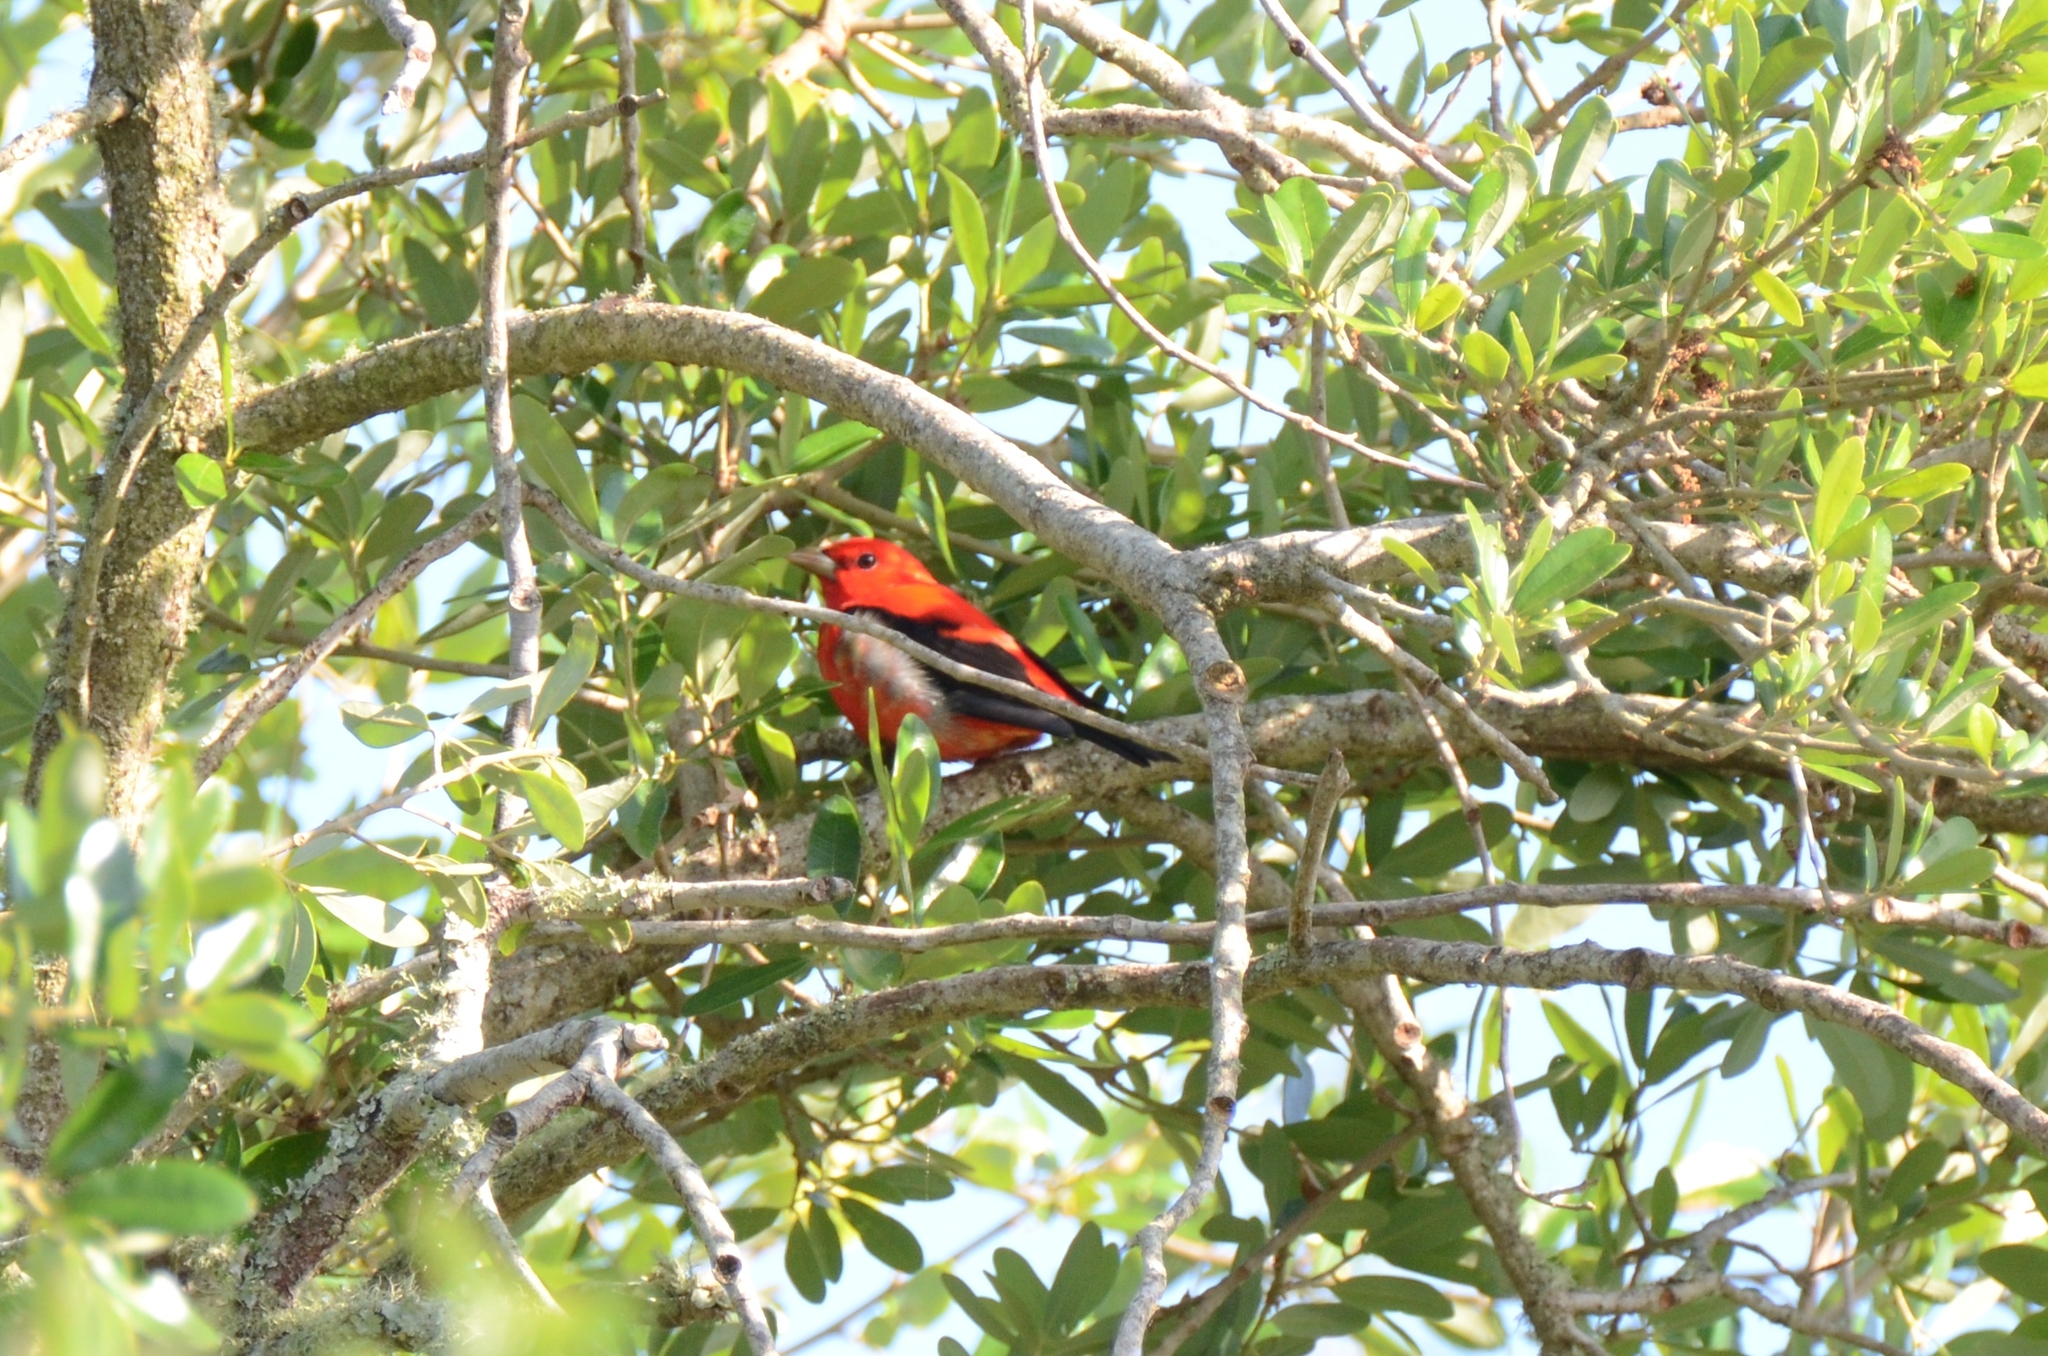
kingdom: Animalia
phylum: Chordata
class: Aves
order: Passeriformes
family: Cardinalidae
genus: Piranga
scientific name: Piranga olivacea
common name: Scarlet tanager
